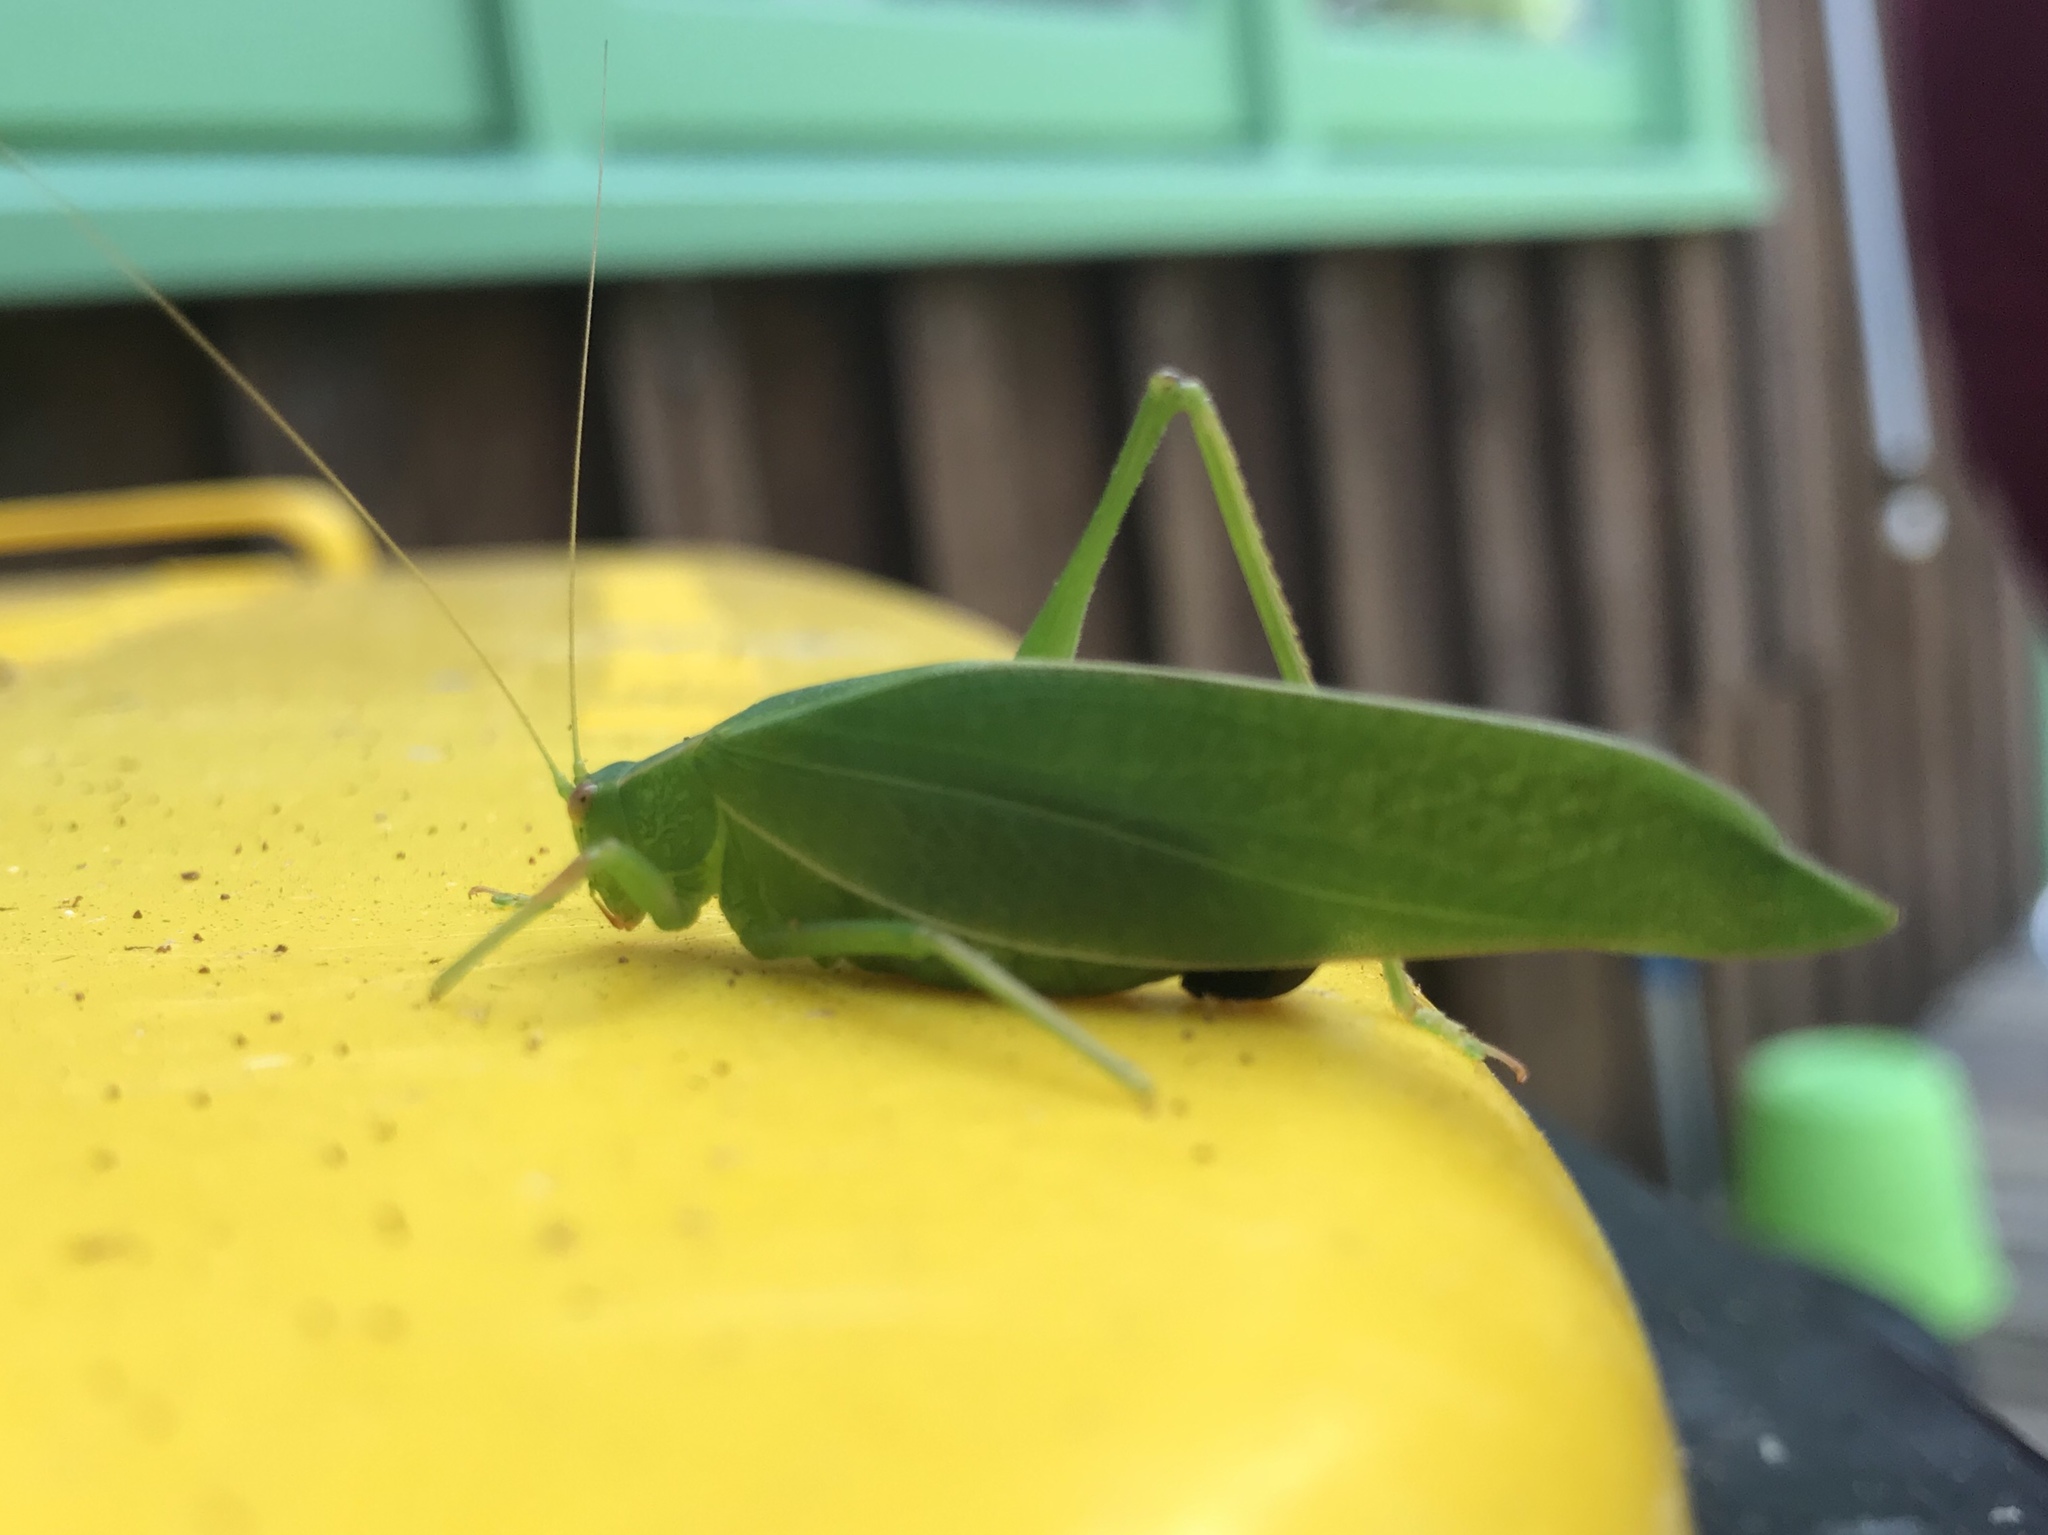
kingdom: Animalia
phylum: Arthropoda
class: Insecta
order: Orthoptera
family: Tettigoniidae
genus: Caedicia
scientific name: Caedicia simplex
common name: Common garden katydid
